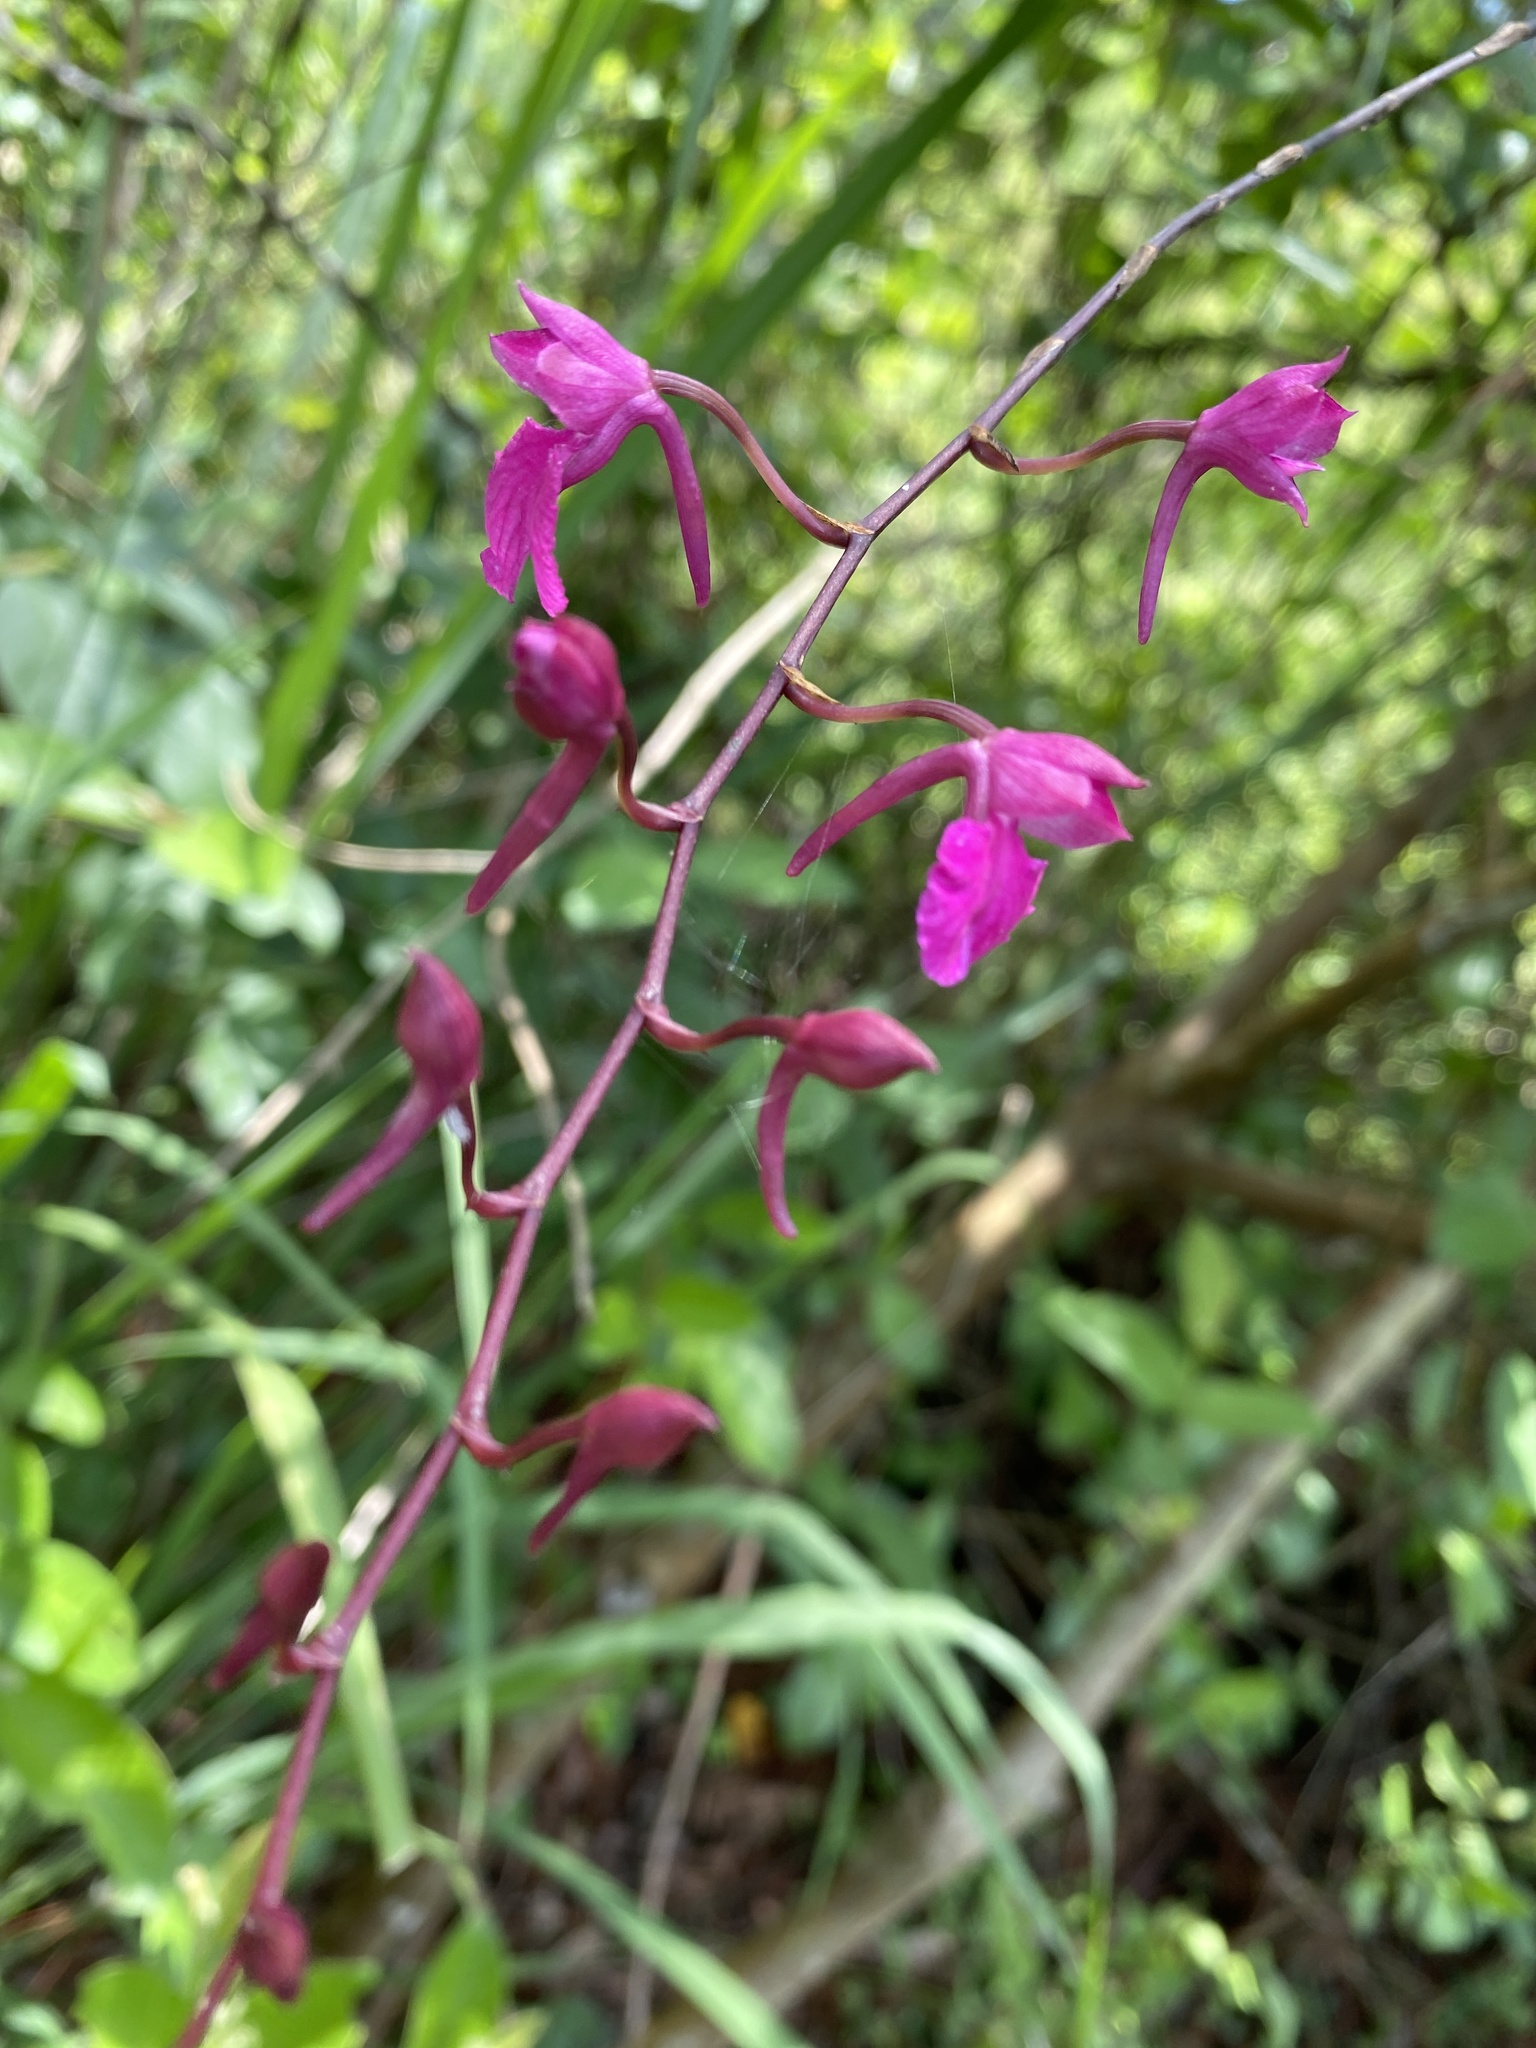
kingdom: Plantae
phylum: Tracheophyta
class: Liliopsida
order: Asparagales
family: Orchidaceae
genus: Comparettia
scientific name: Comparettia falcata
